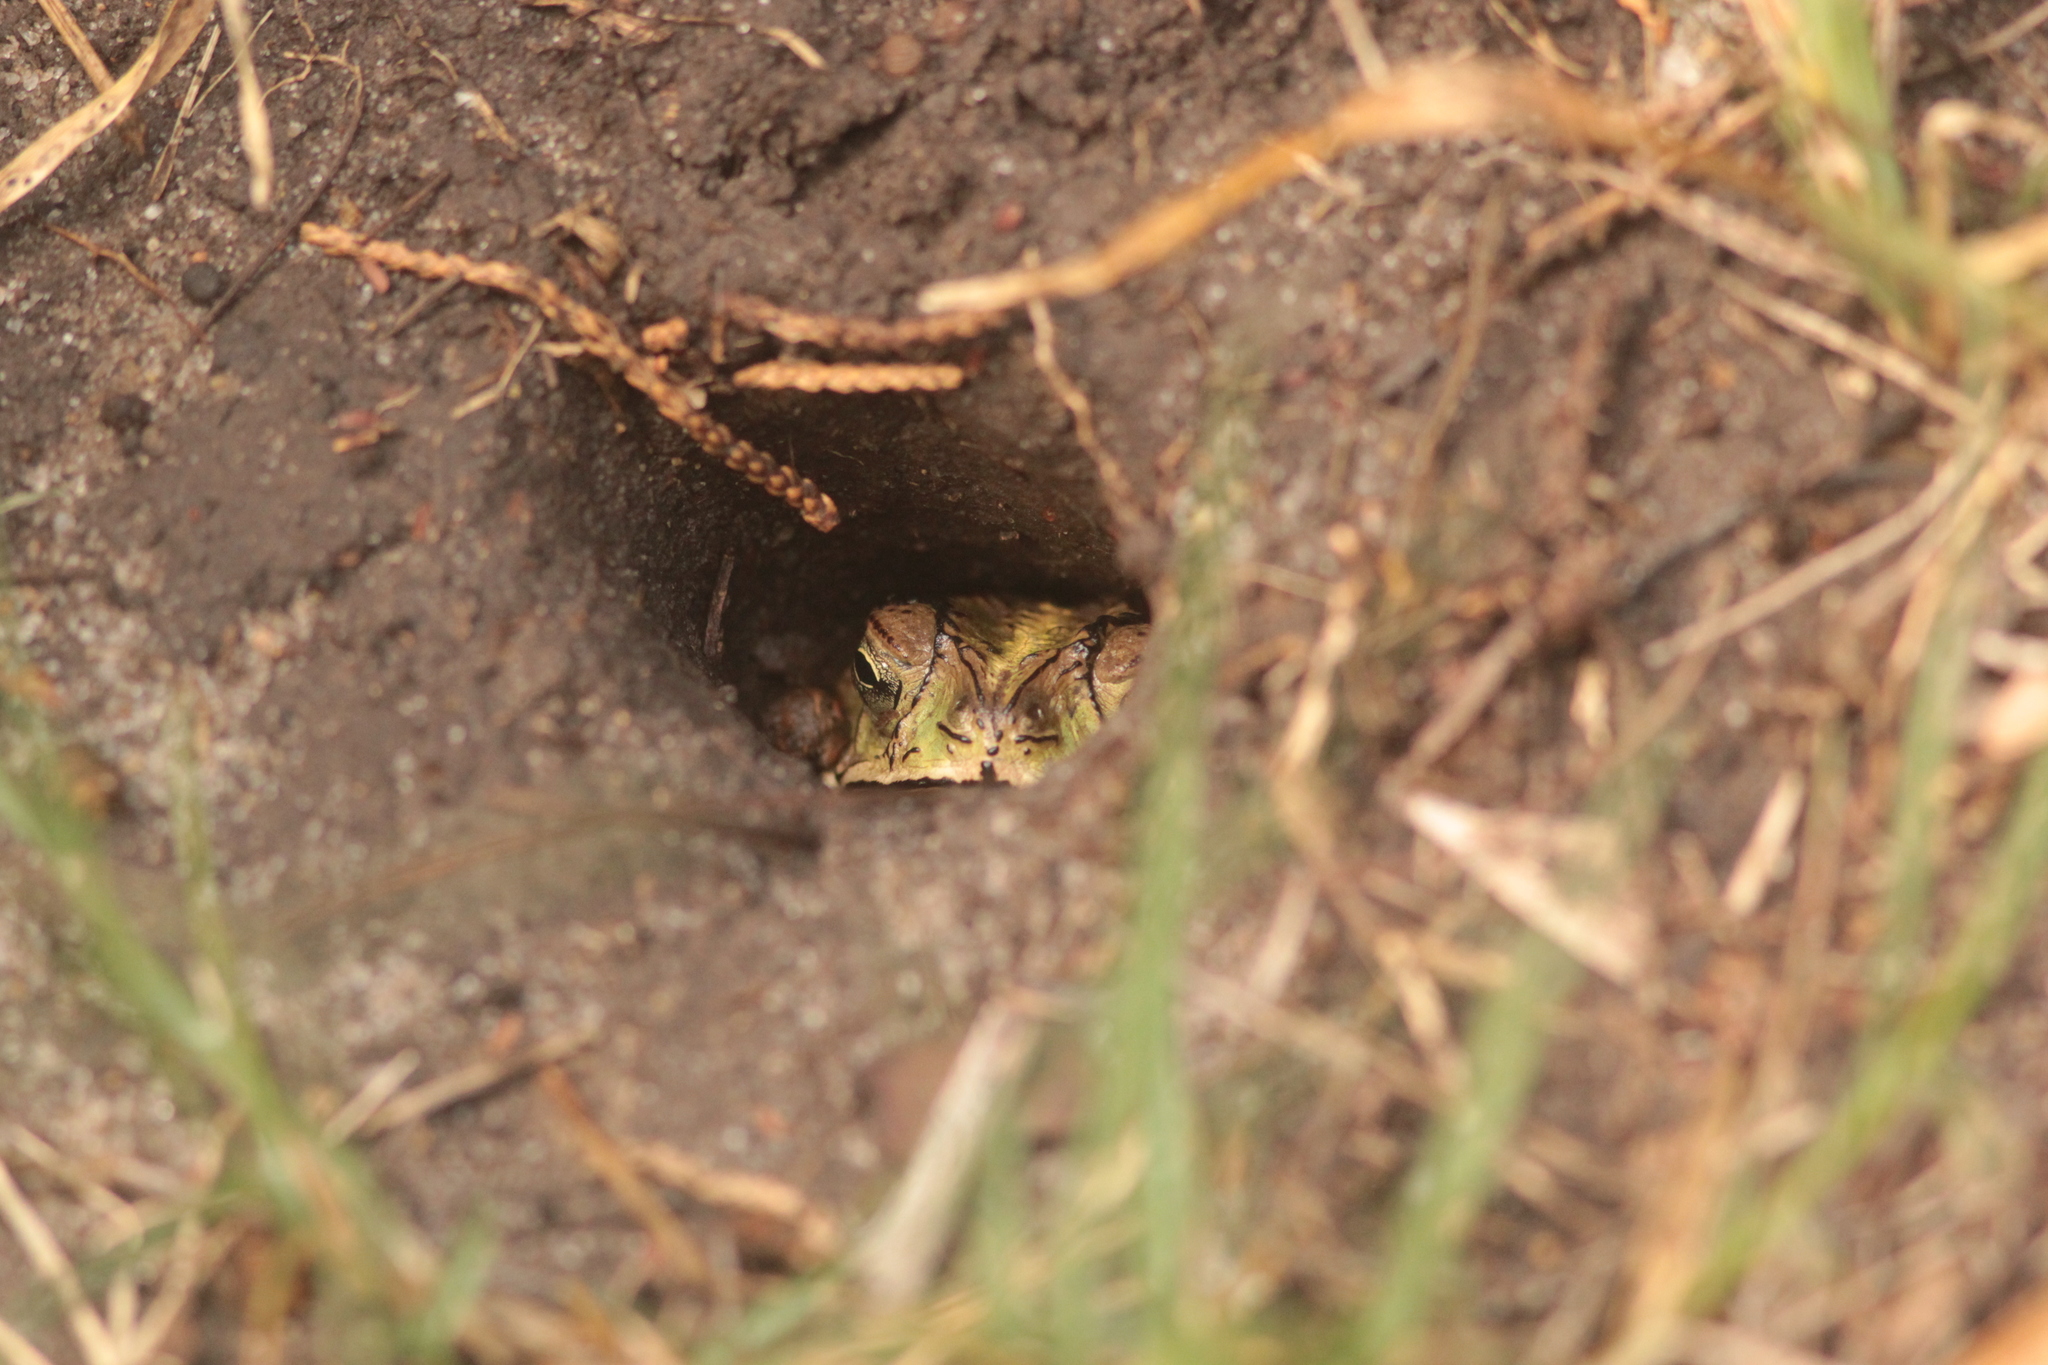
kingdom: Animalia
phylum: Chordata
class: Amphibia
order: Anura
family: Bufonidae
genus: Rhinella
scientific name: Rhinella dorbignyi
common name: D´orbigny’s toad
